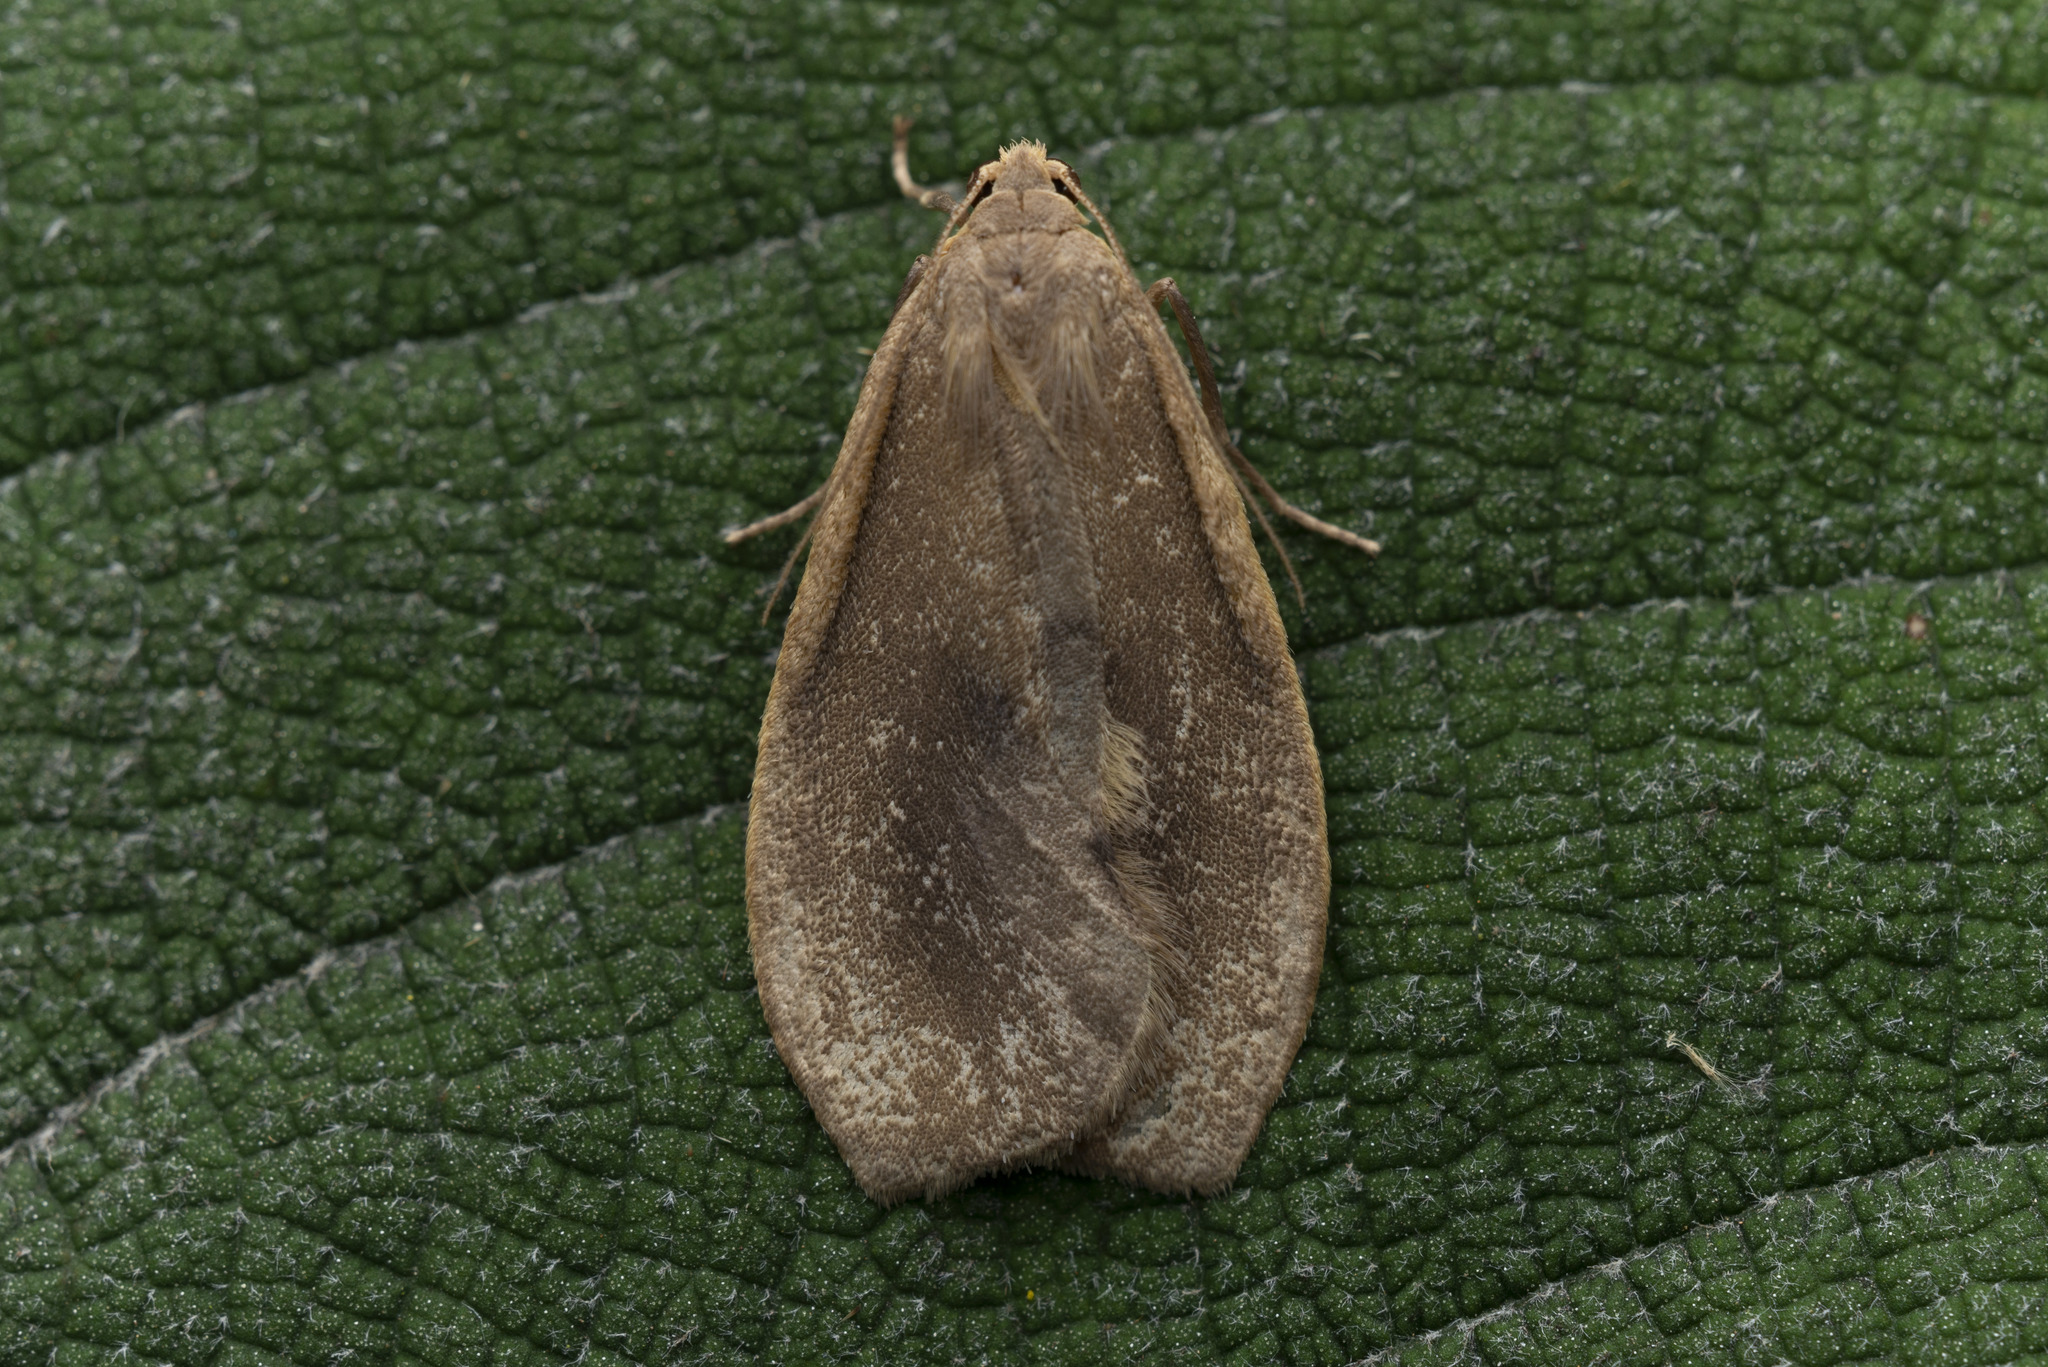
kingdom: Animalia
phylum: Arthropoda
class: Insecta
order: Lepidoptera
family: Erebidae
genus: Gampola
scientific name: Gampola sinica
